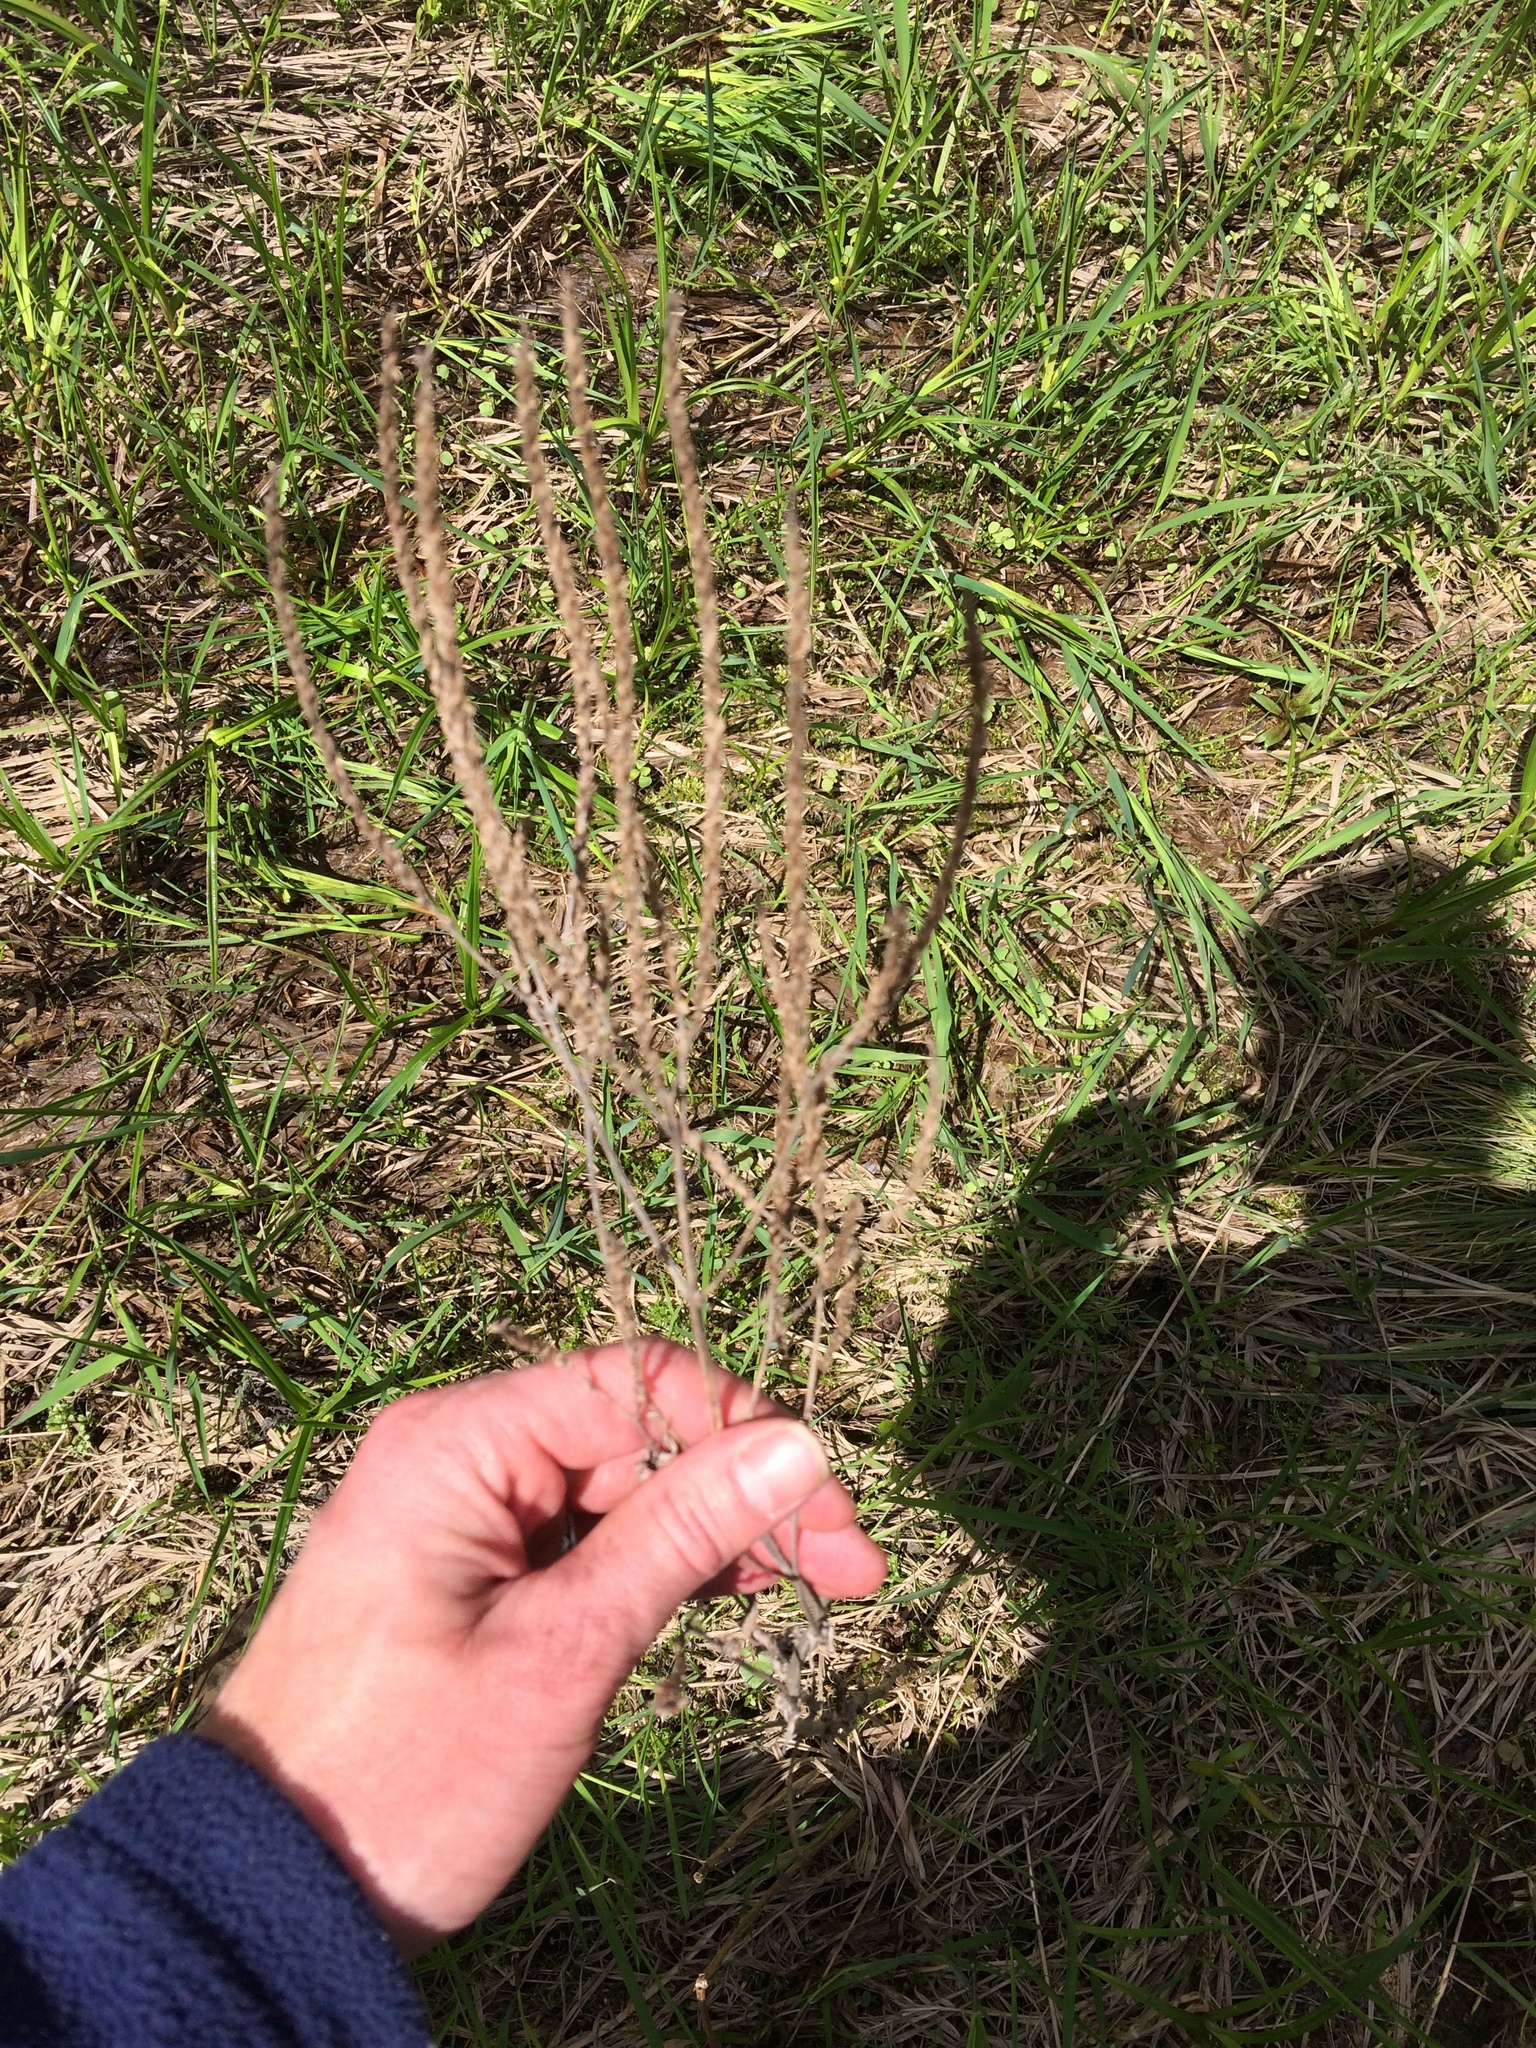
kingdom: Plantae
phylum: Tracheophyta
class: Magnoliopsida
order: Lamiales
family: Verbenaceae
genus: Verbena
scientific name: Verbena hastata
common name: American blue vervain
